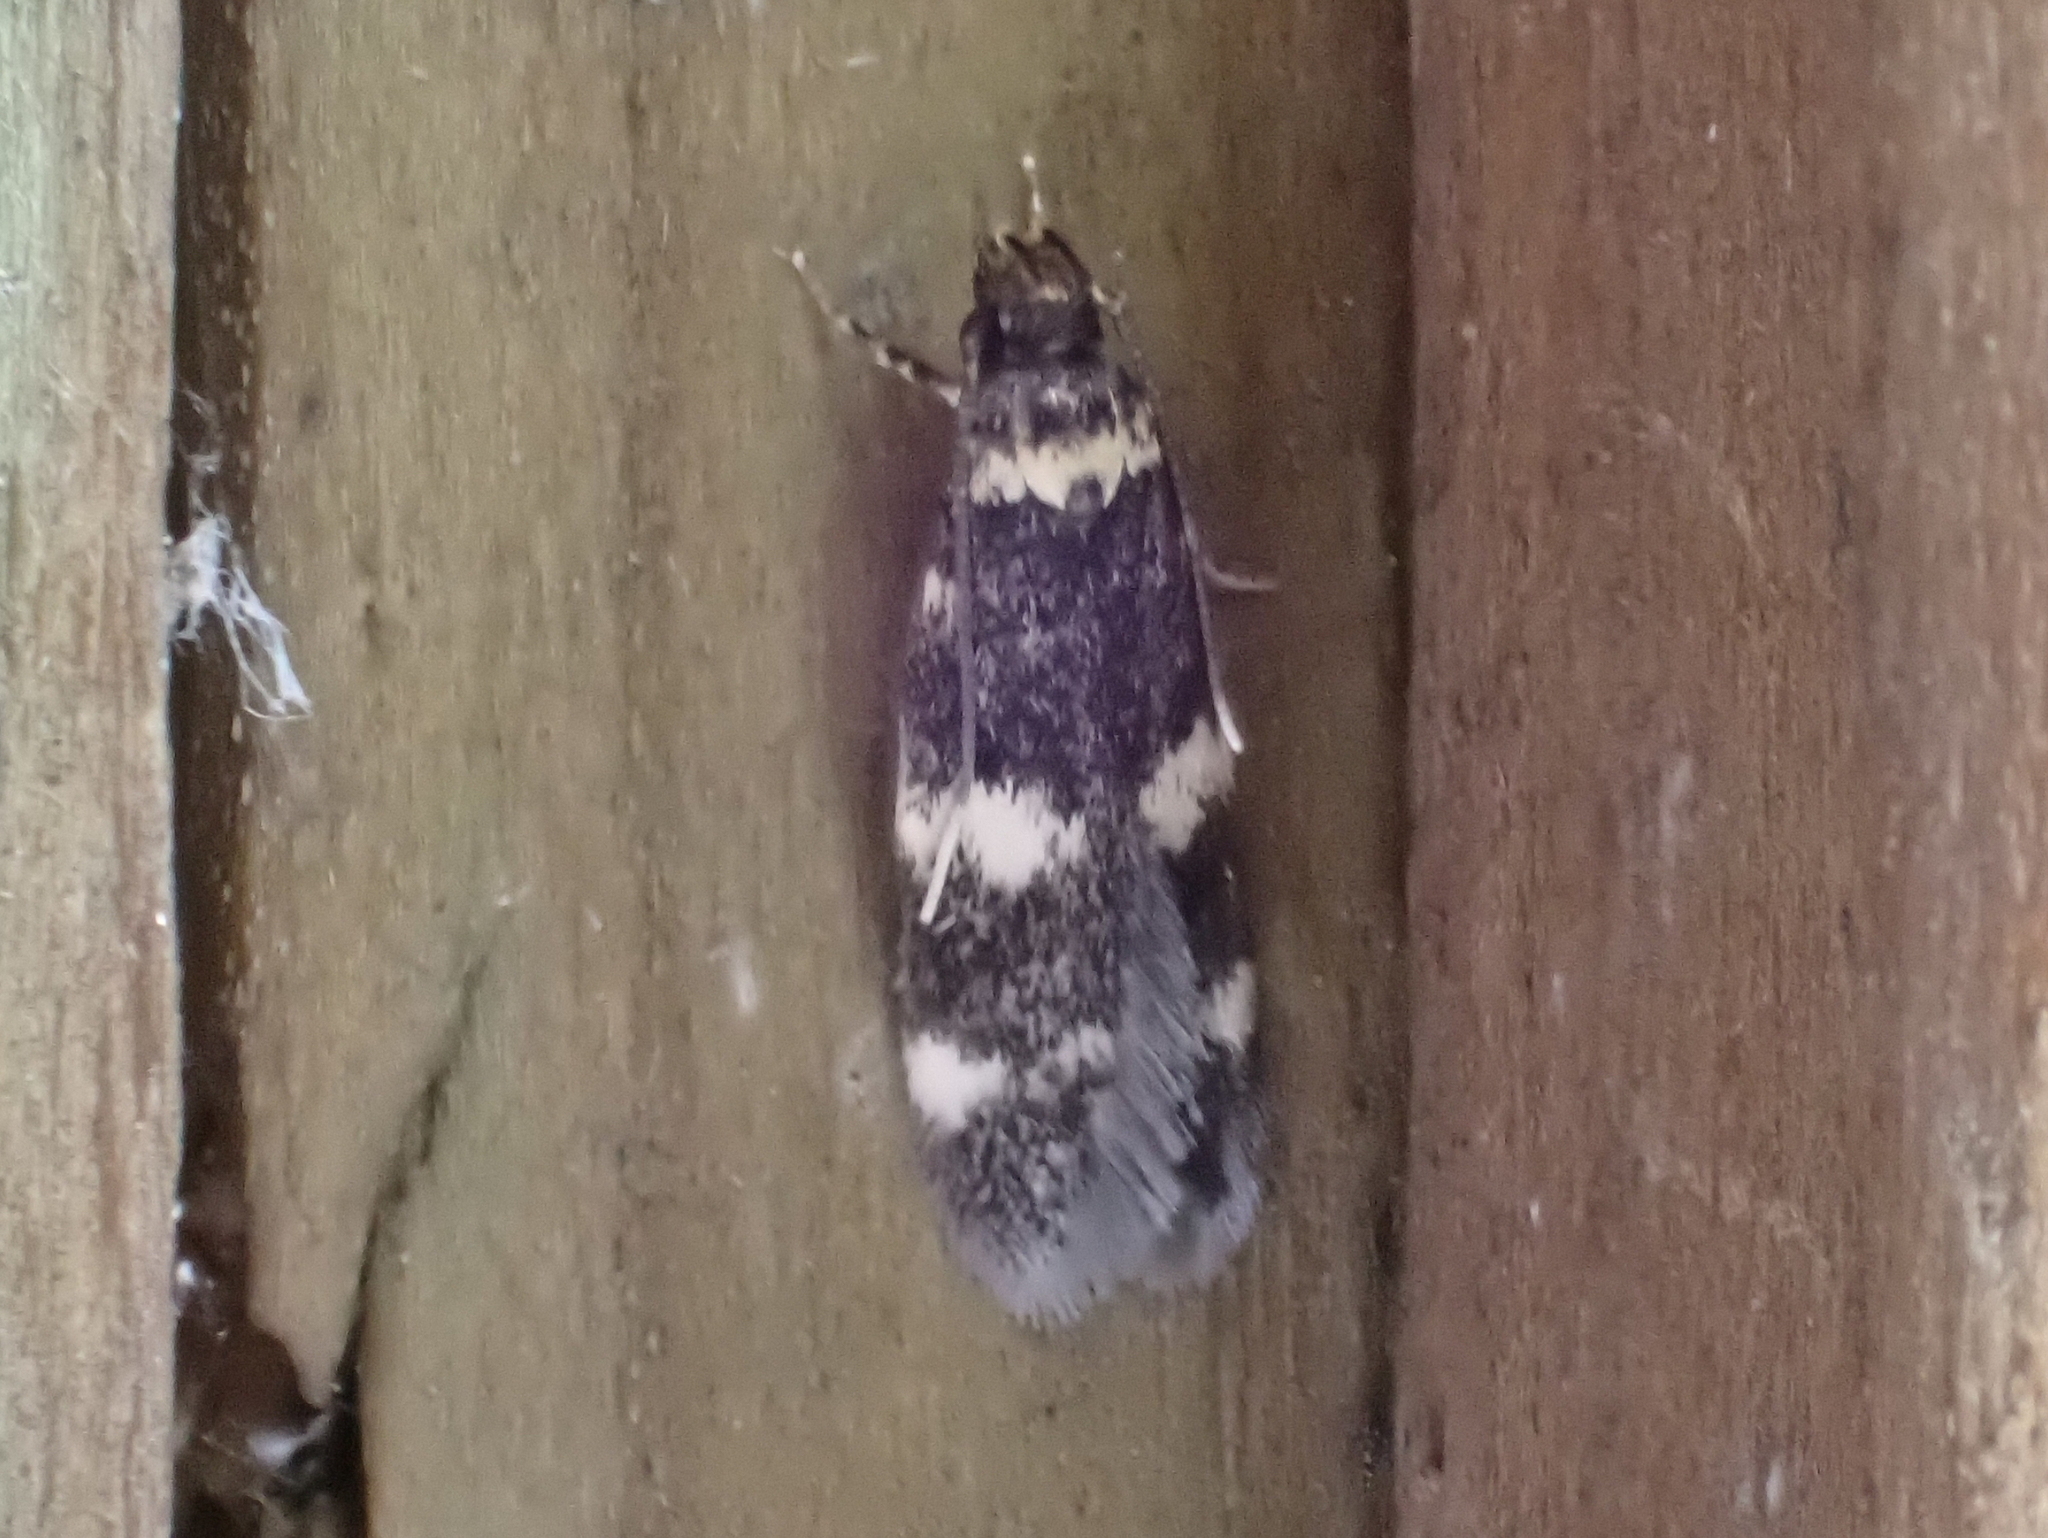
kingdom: Animalia
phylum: Arthropoda
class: Insecta
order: Lepidoptera
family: Autostichidae
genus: Oegoconia
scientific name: Oegoconia quadripuncta
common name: Four-spotted obscure
